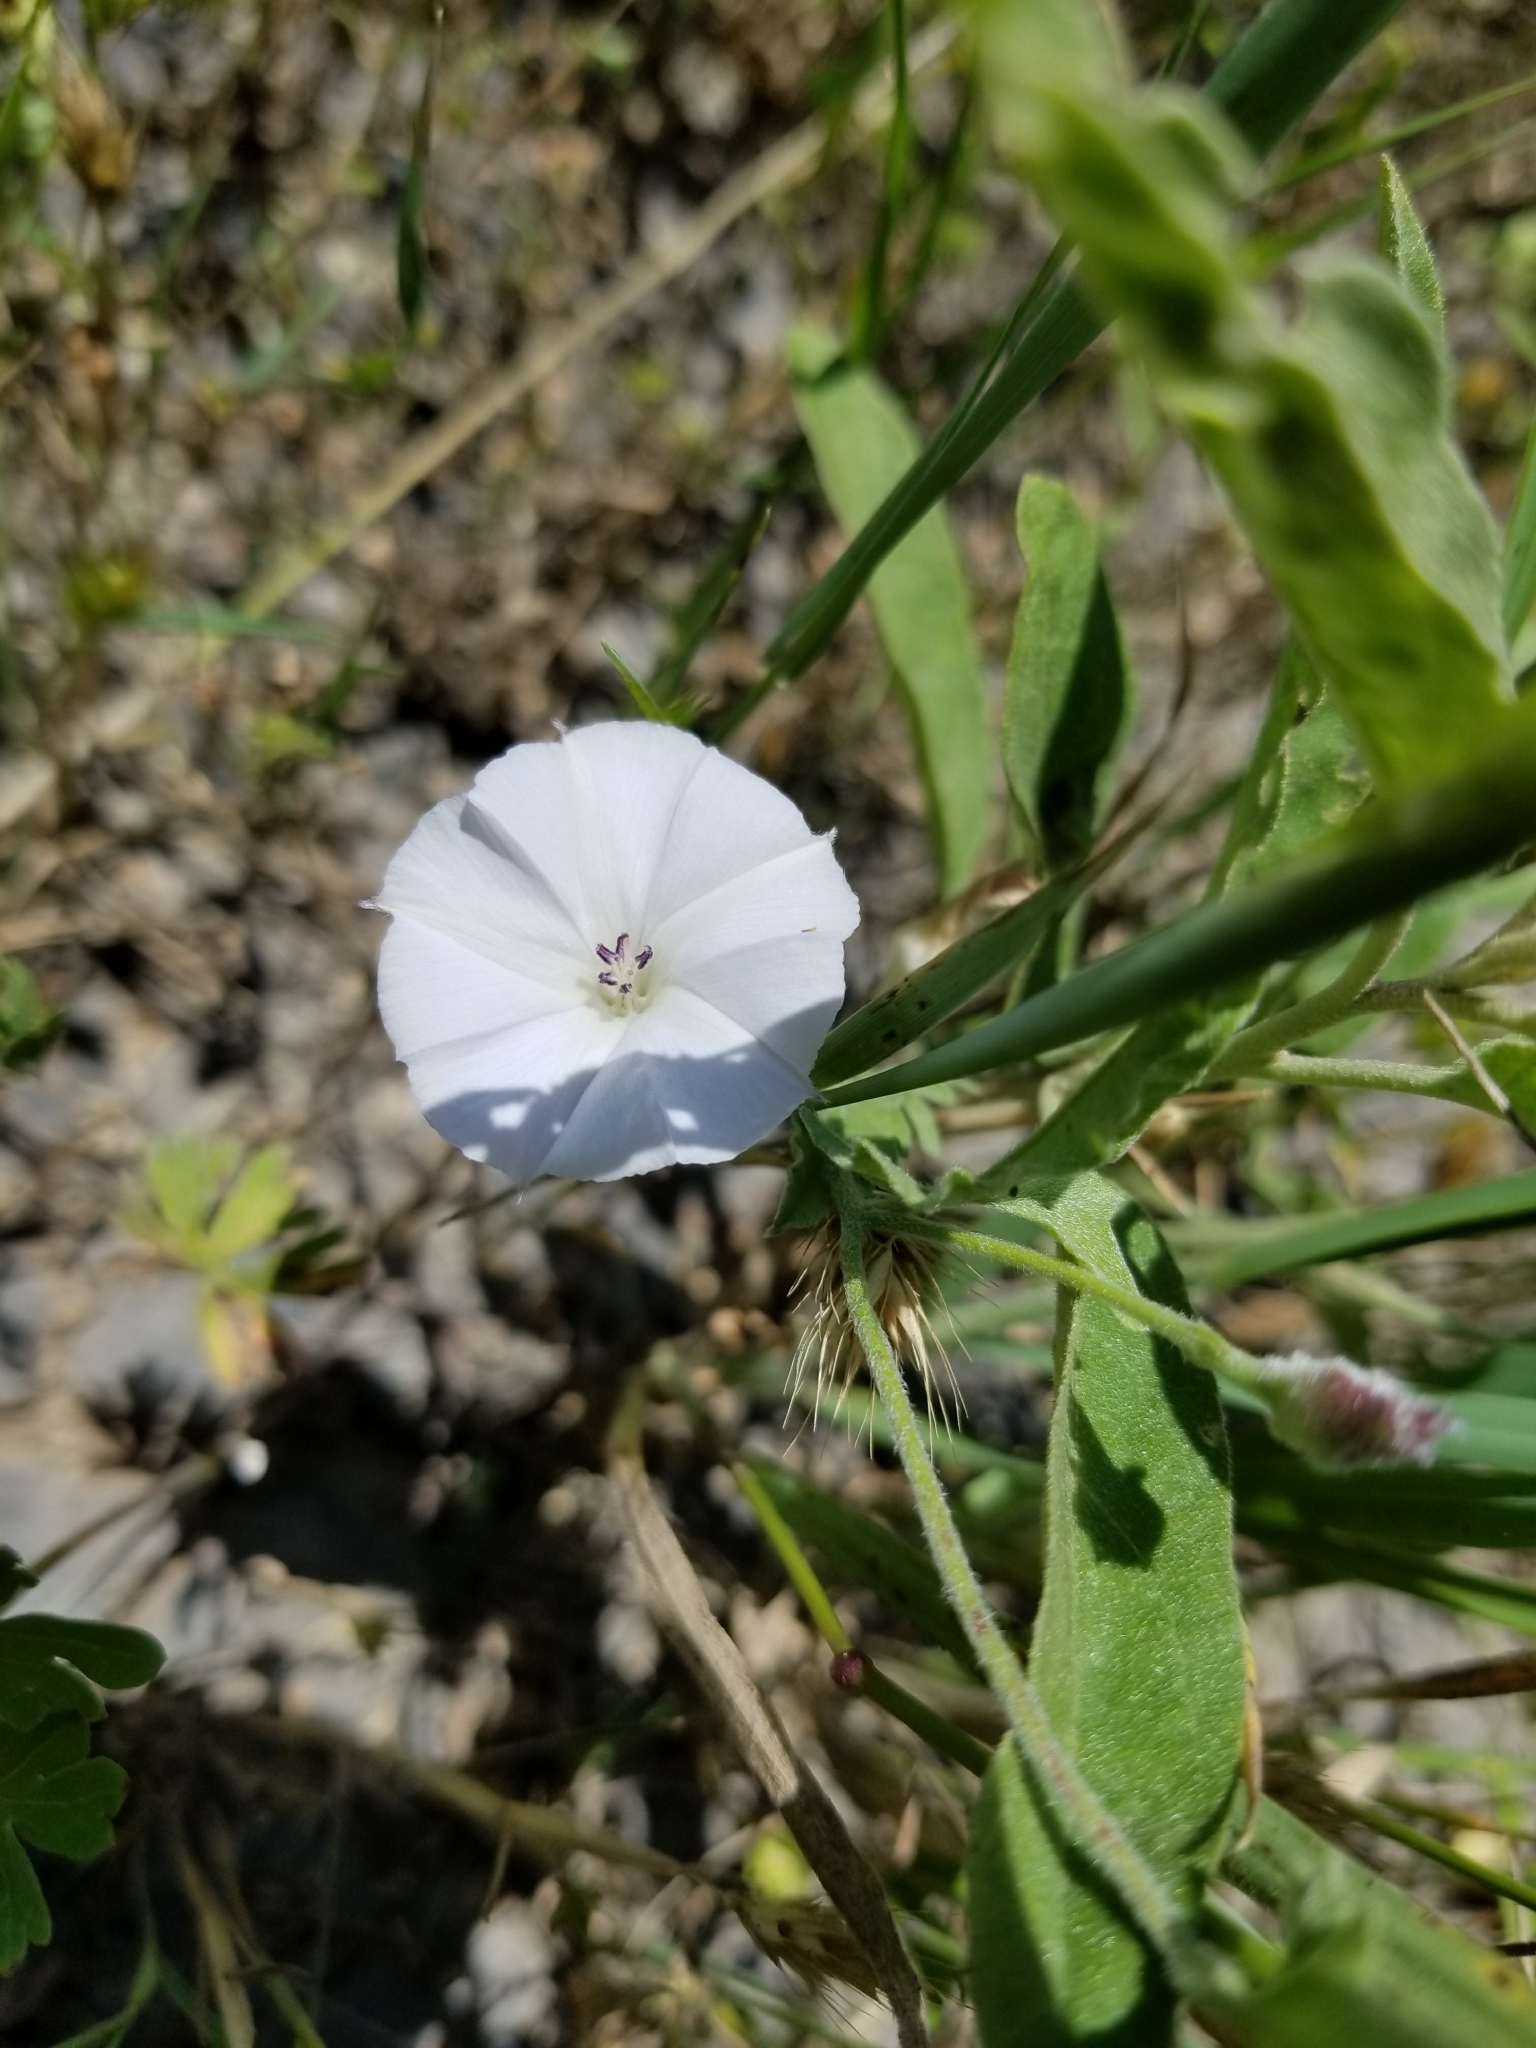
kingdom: Plantae
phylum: Tracheophyta
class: Magnoliopsida
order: Solanales
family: Convolvulaceae
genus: Convolvulus
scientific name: Convolvulus arvensis
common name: Field bindweed
